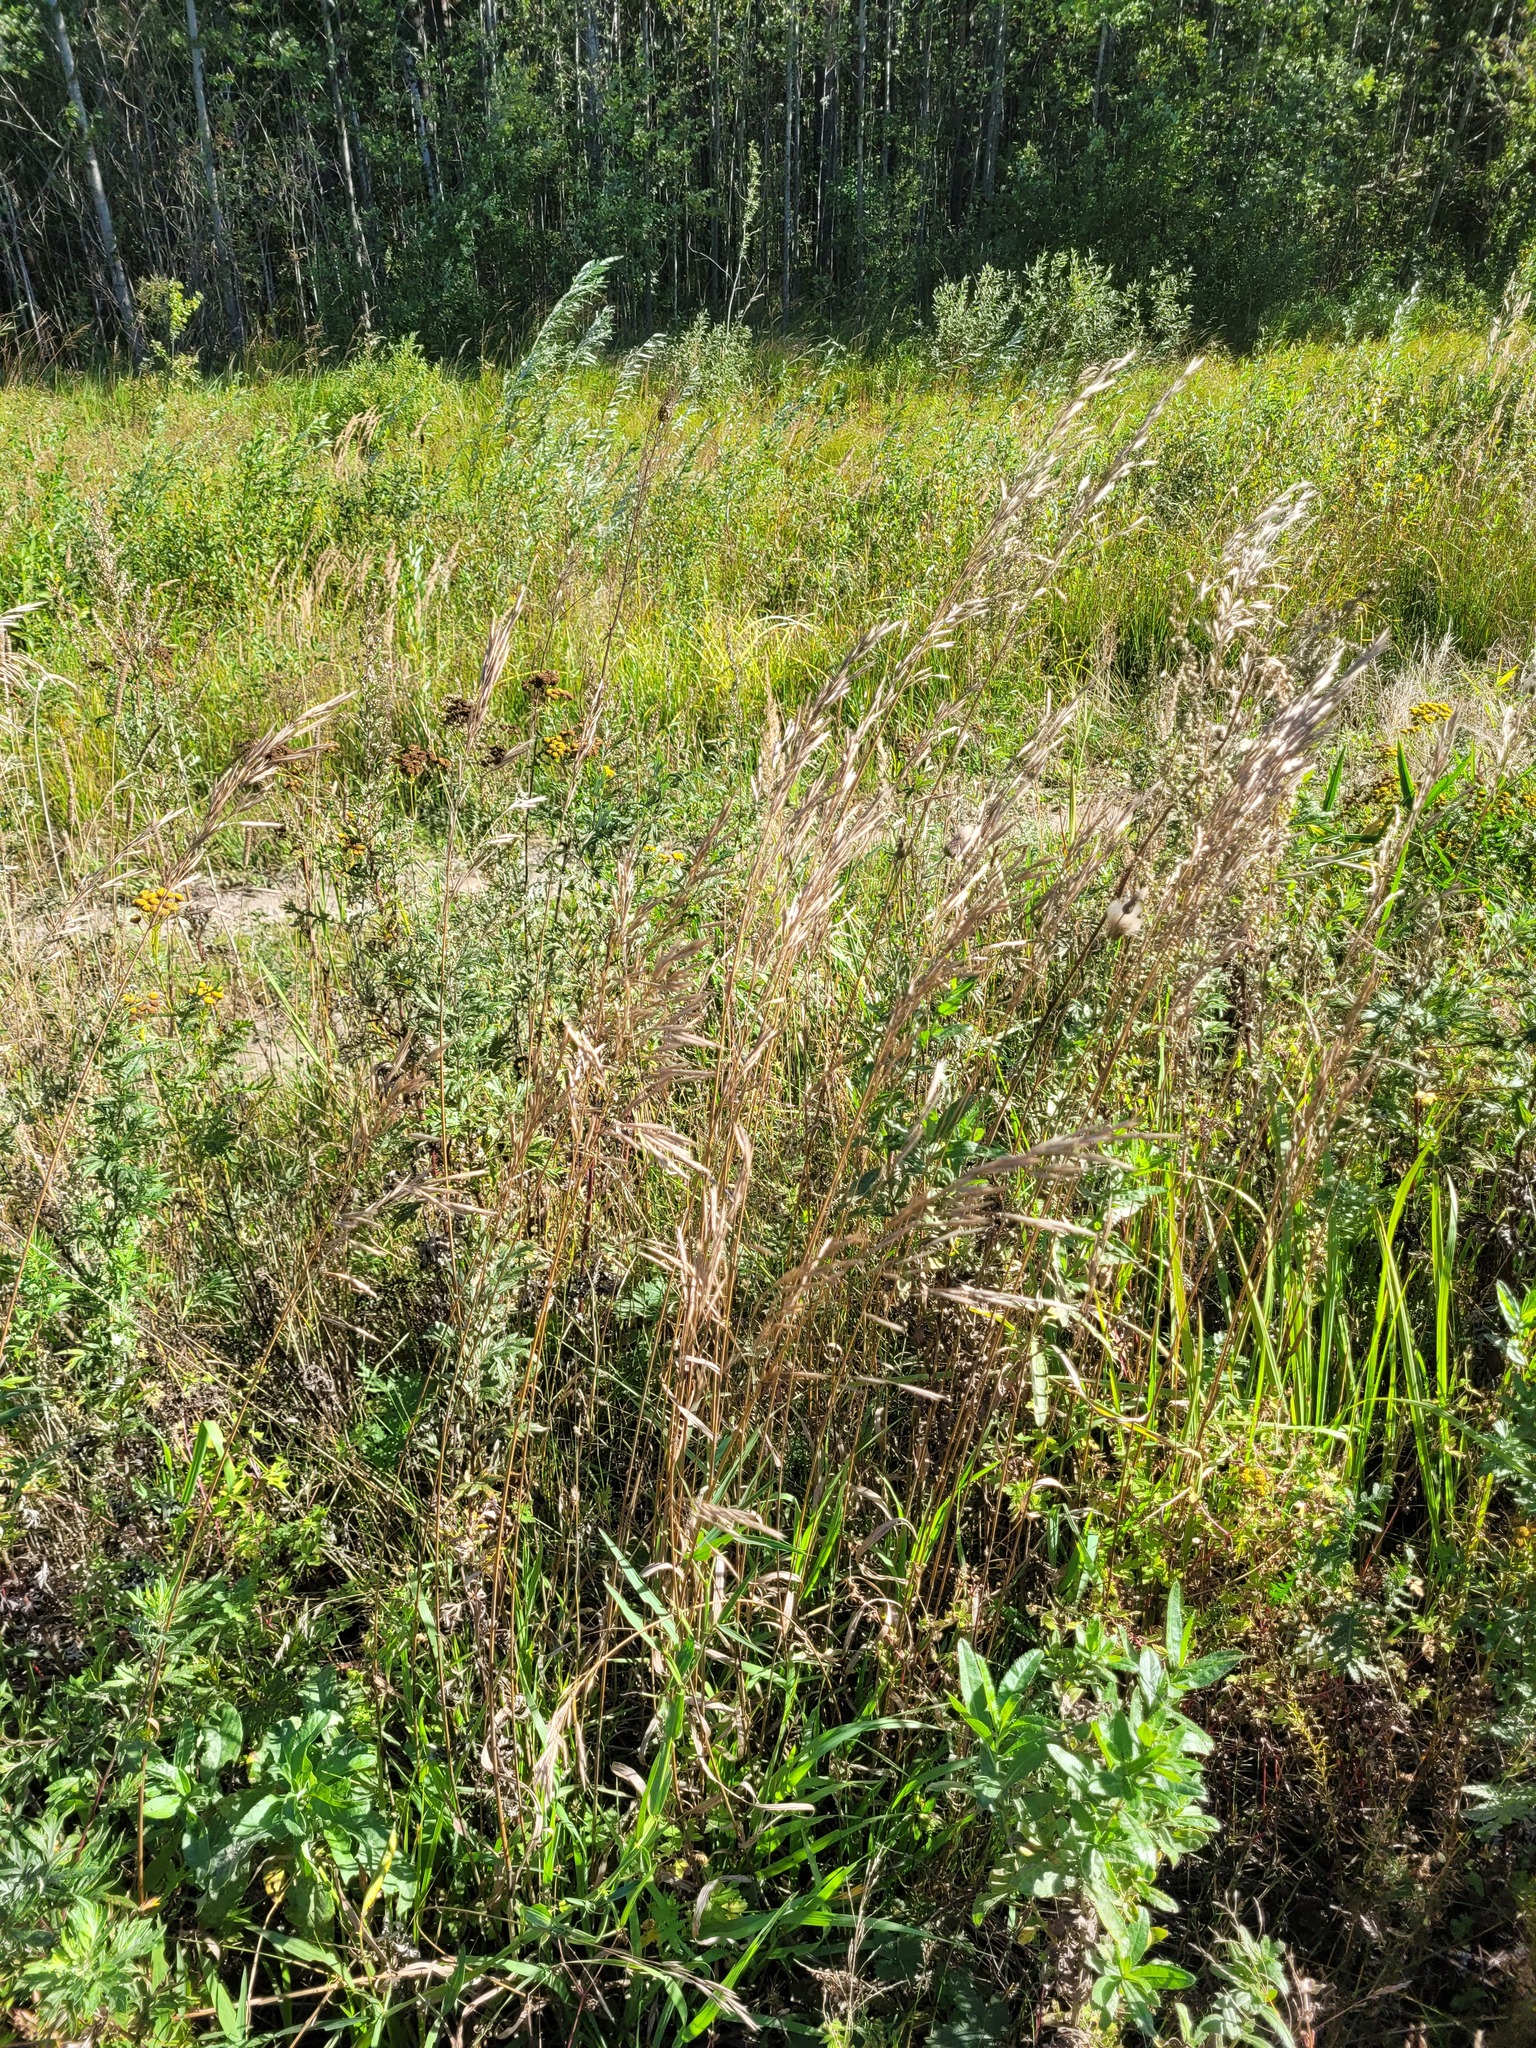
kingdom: Plantae
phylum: Tracheophyta
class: Liliopsida
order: Poales
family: Poaceae
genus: Bromus
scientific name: Bromus inermis
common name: Smooth brome
